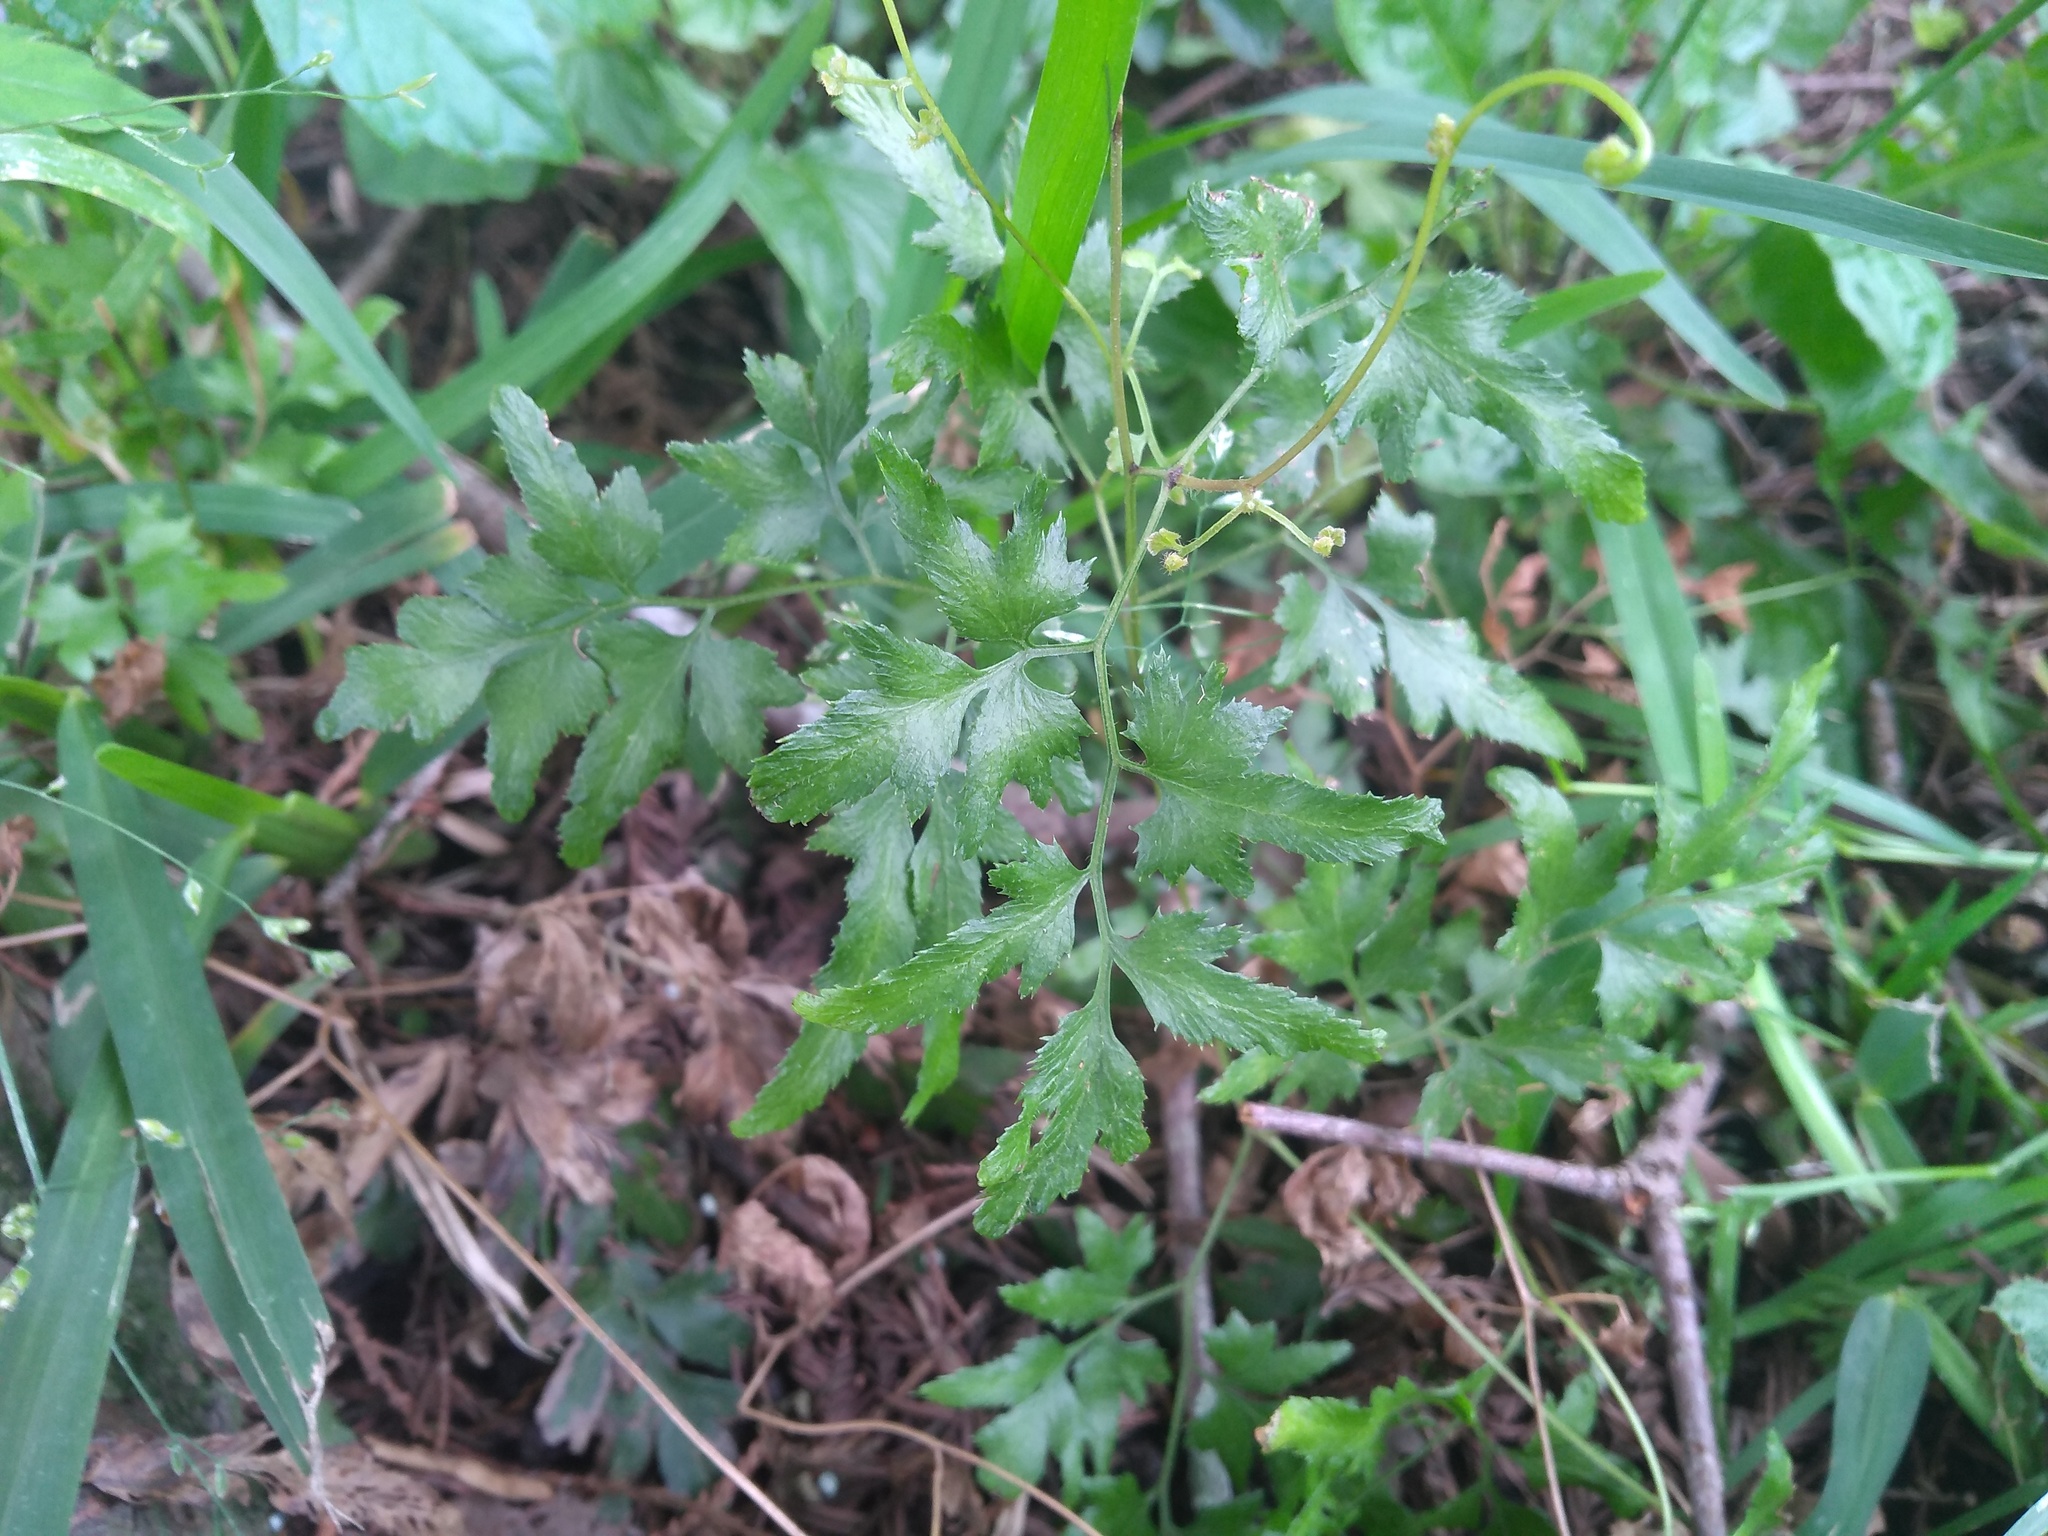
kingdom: Plantae
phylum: Tracheophyta
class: Polypodiopsida
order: Schizaeales
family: Lygodiaceae
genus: Lygodium
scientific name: Lygodium japonicum
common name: Japanese climbing fern
